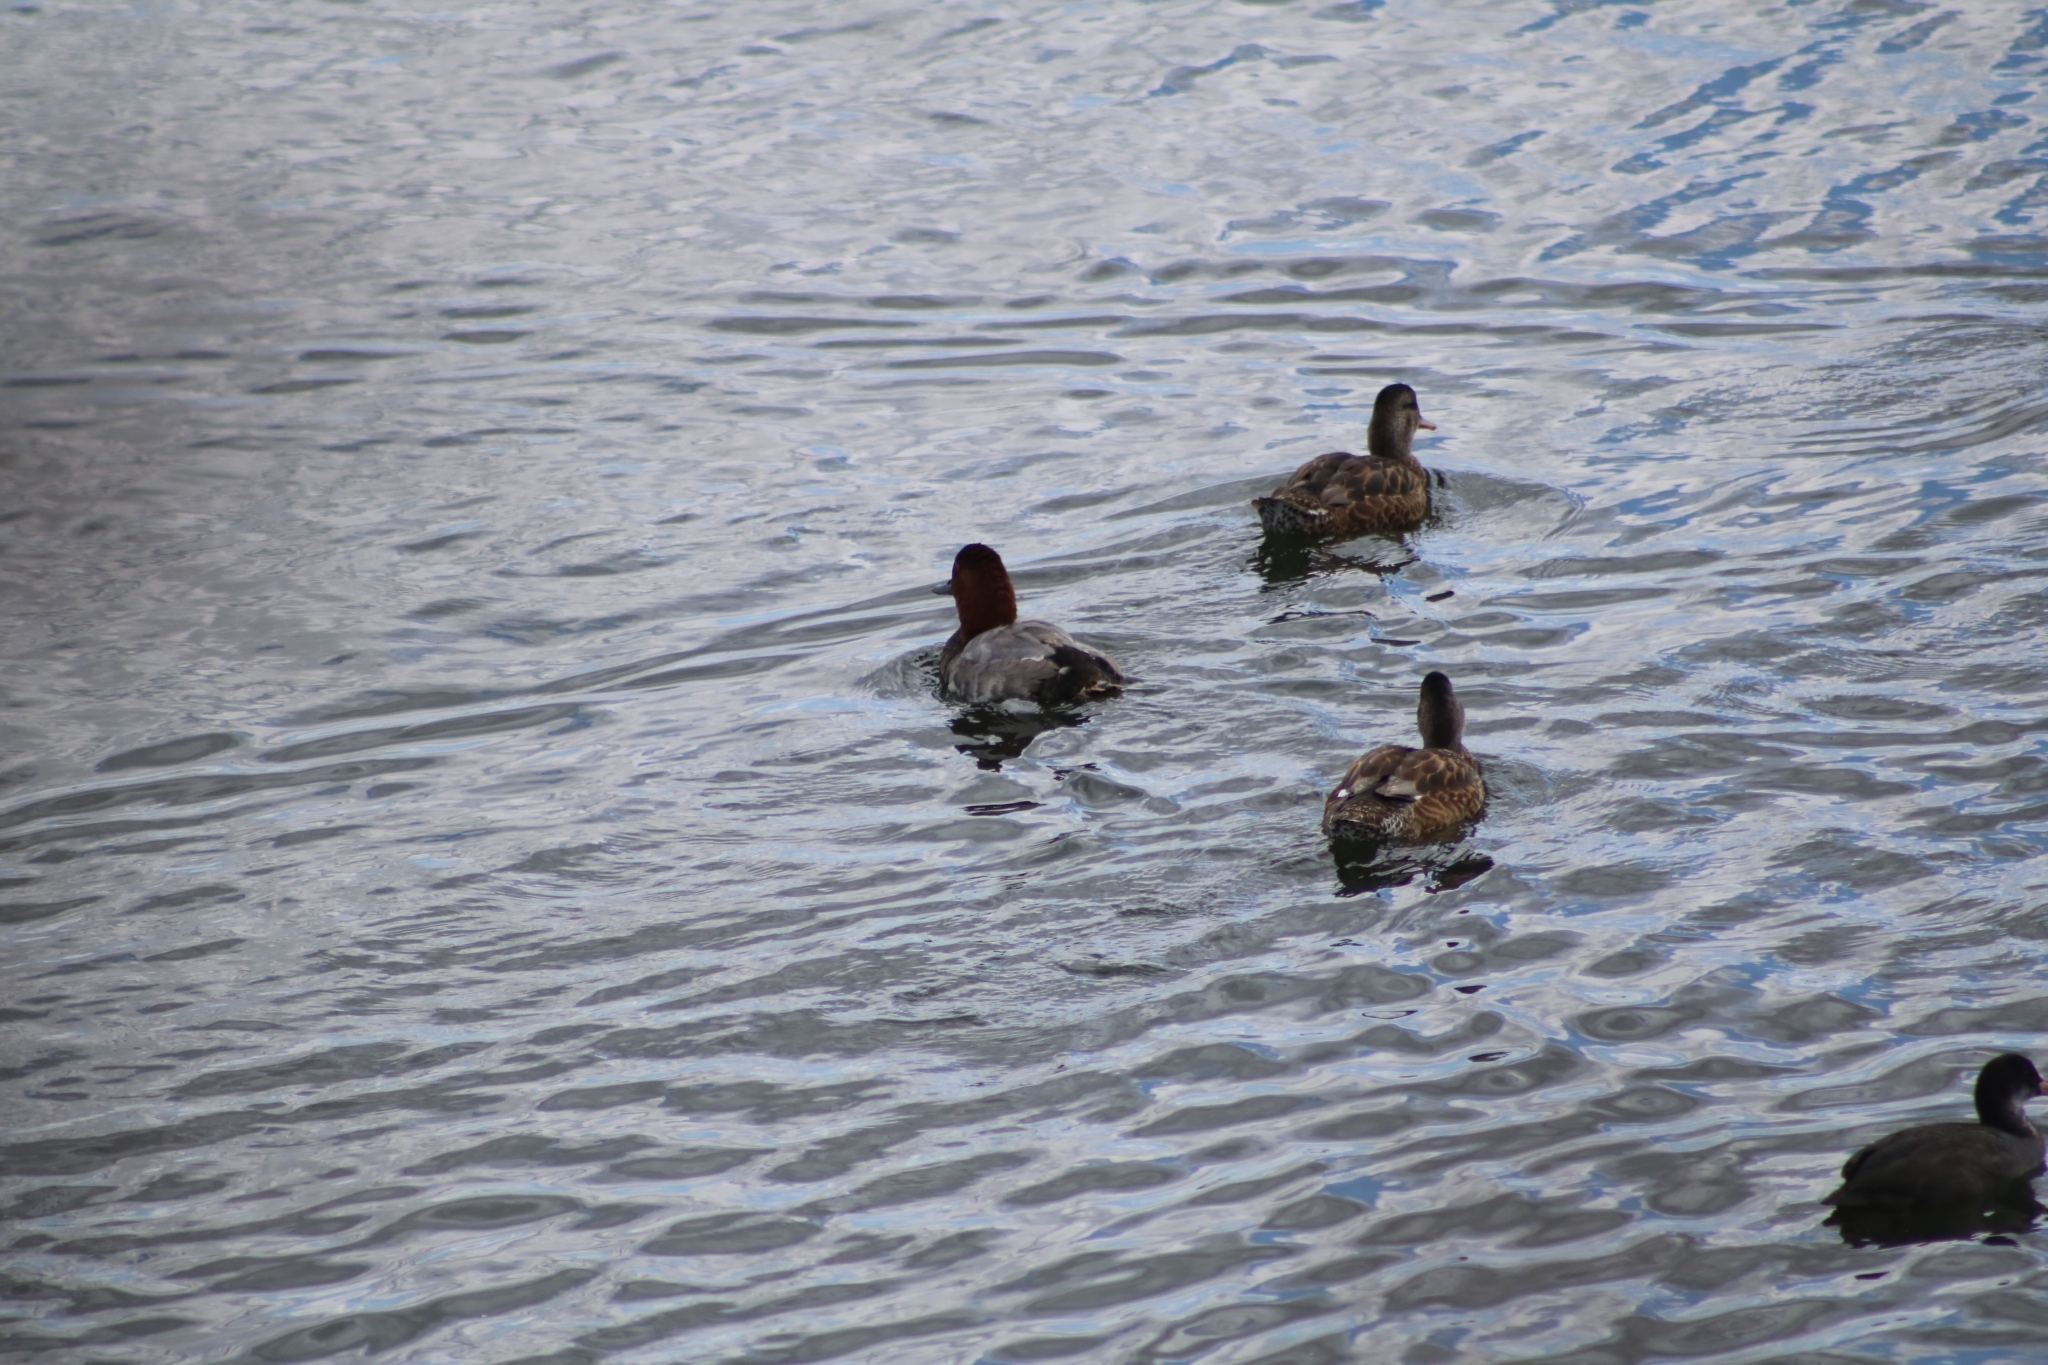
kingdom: Animalia
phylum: Chordata
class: Aves
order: Anseriformes
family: Anatidae
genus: Mareca
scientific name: Mareca strepera
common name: Gadwall
